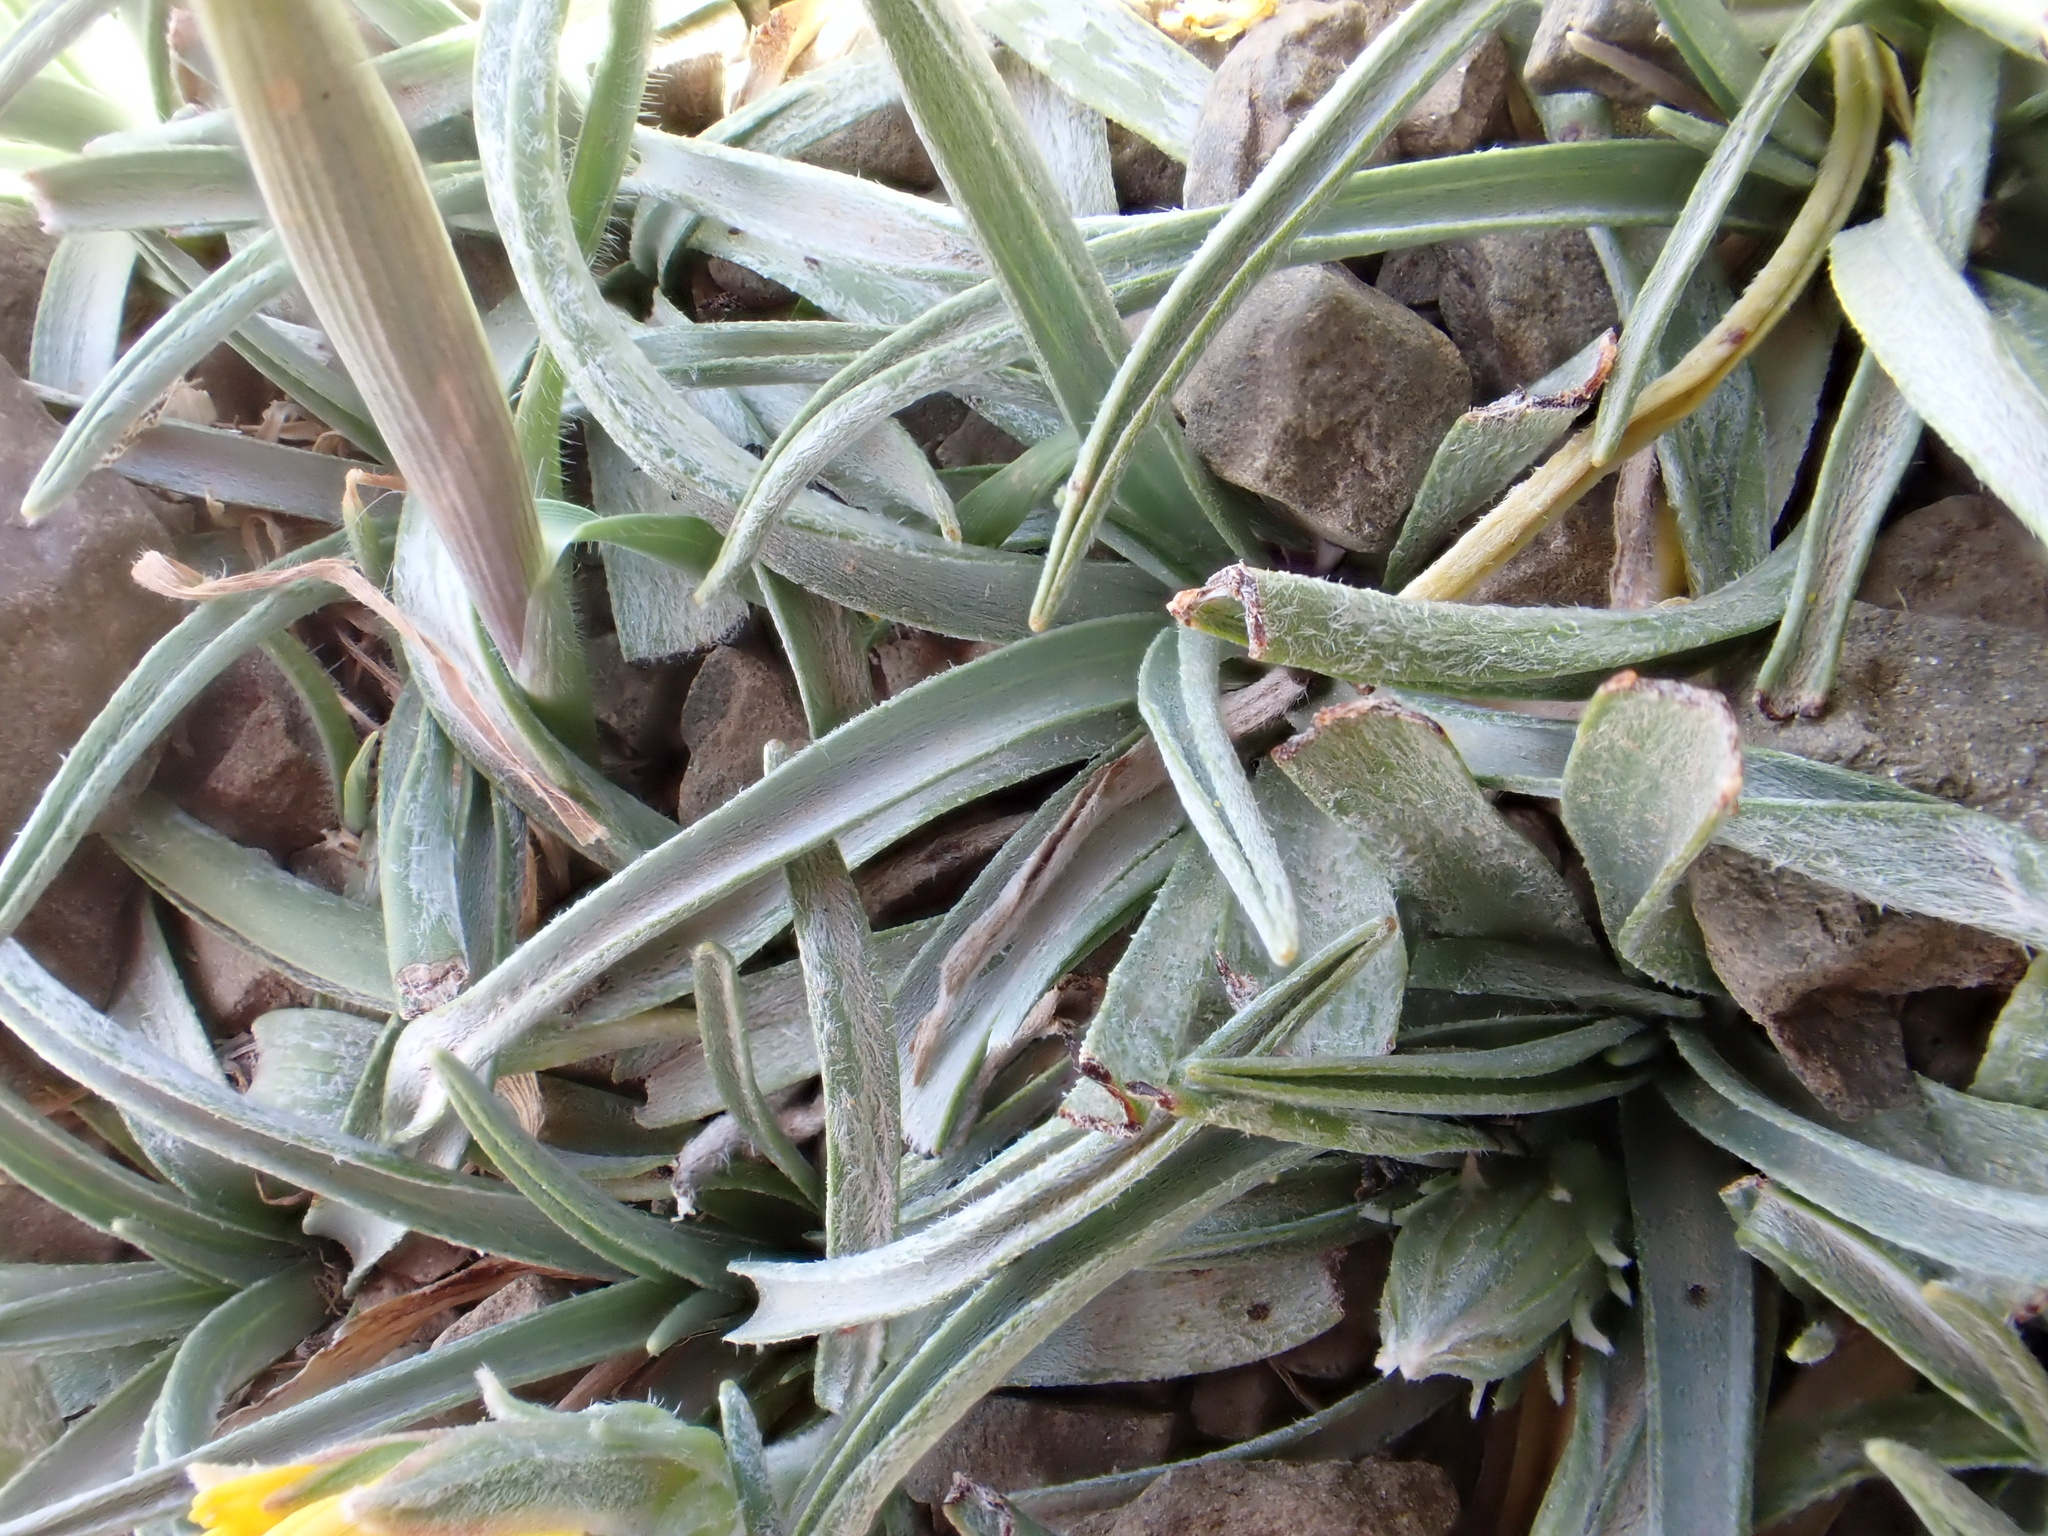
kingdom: Plantae
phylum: Tracheophyta
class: Magnoliopsida
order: Asterales
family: Asteraceae
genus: Gelasia
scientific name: Gelasia caespitosa
